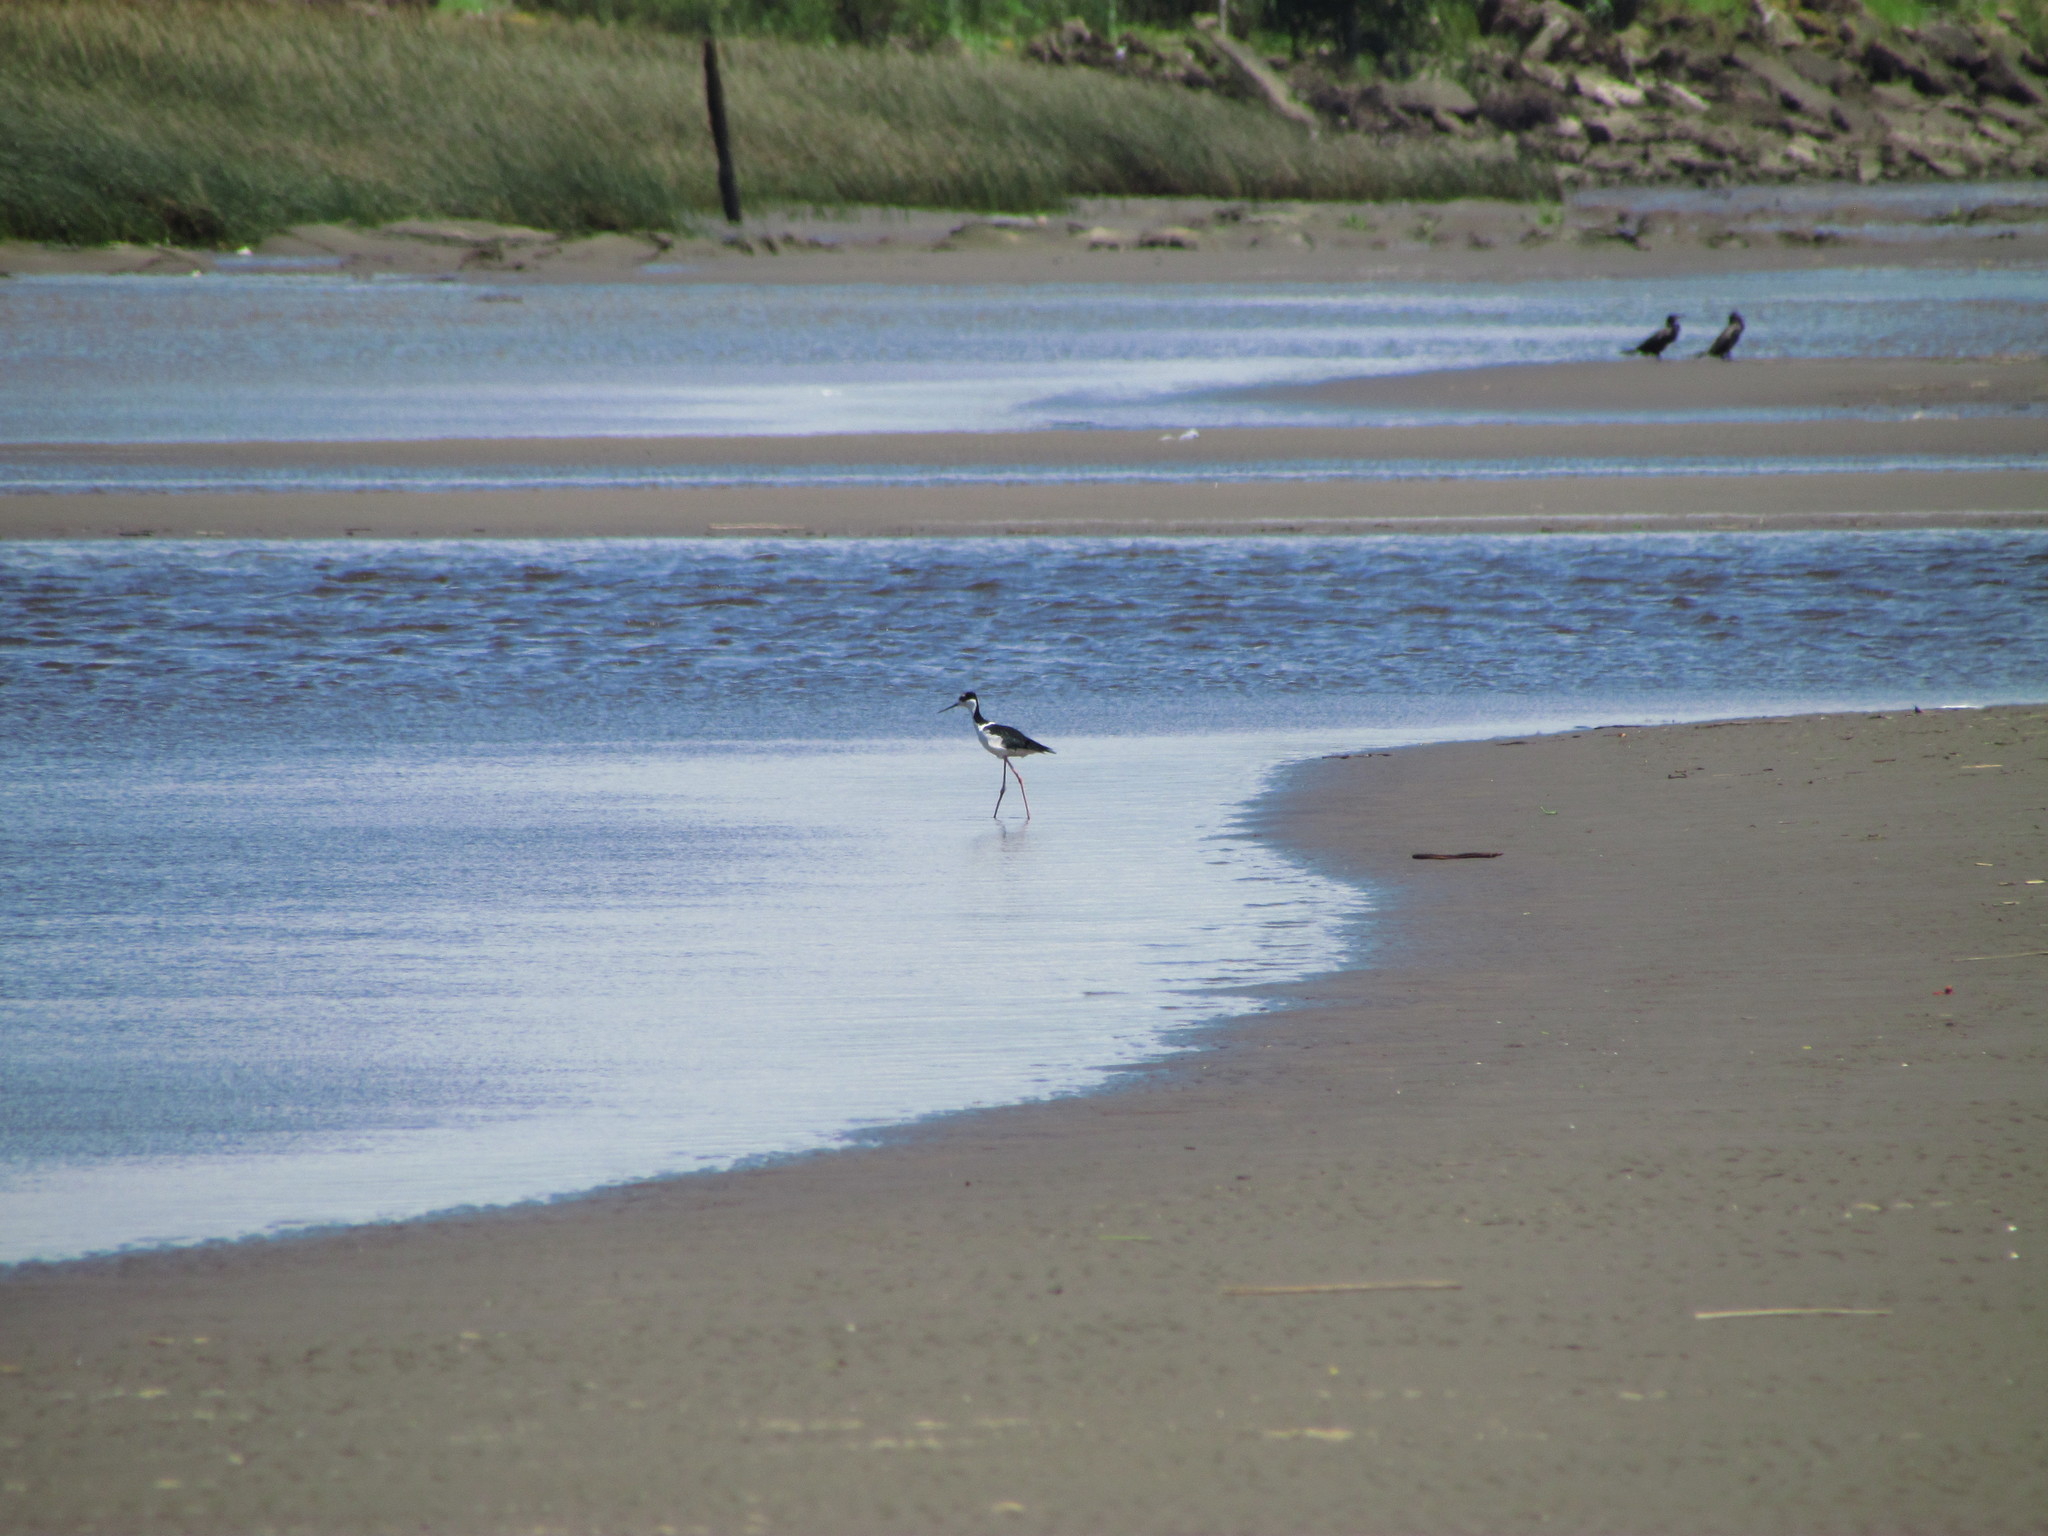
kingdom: Animalia
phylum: Chordata
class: Aves
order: Charadriiformes
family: Recurvirostridae
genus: Himantopus
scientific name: Himantopus mexicanus
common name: Black-necked stilt
